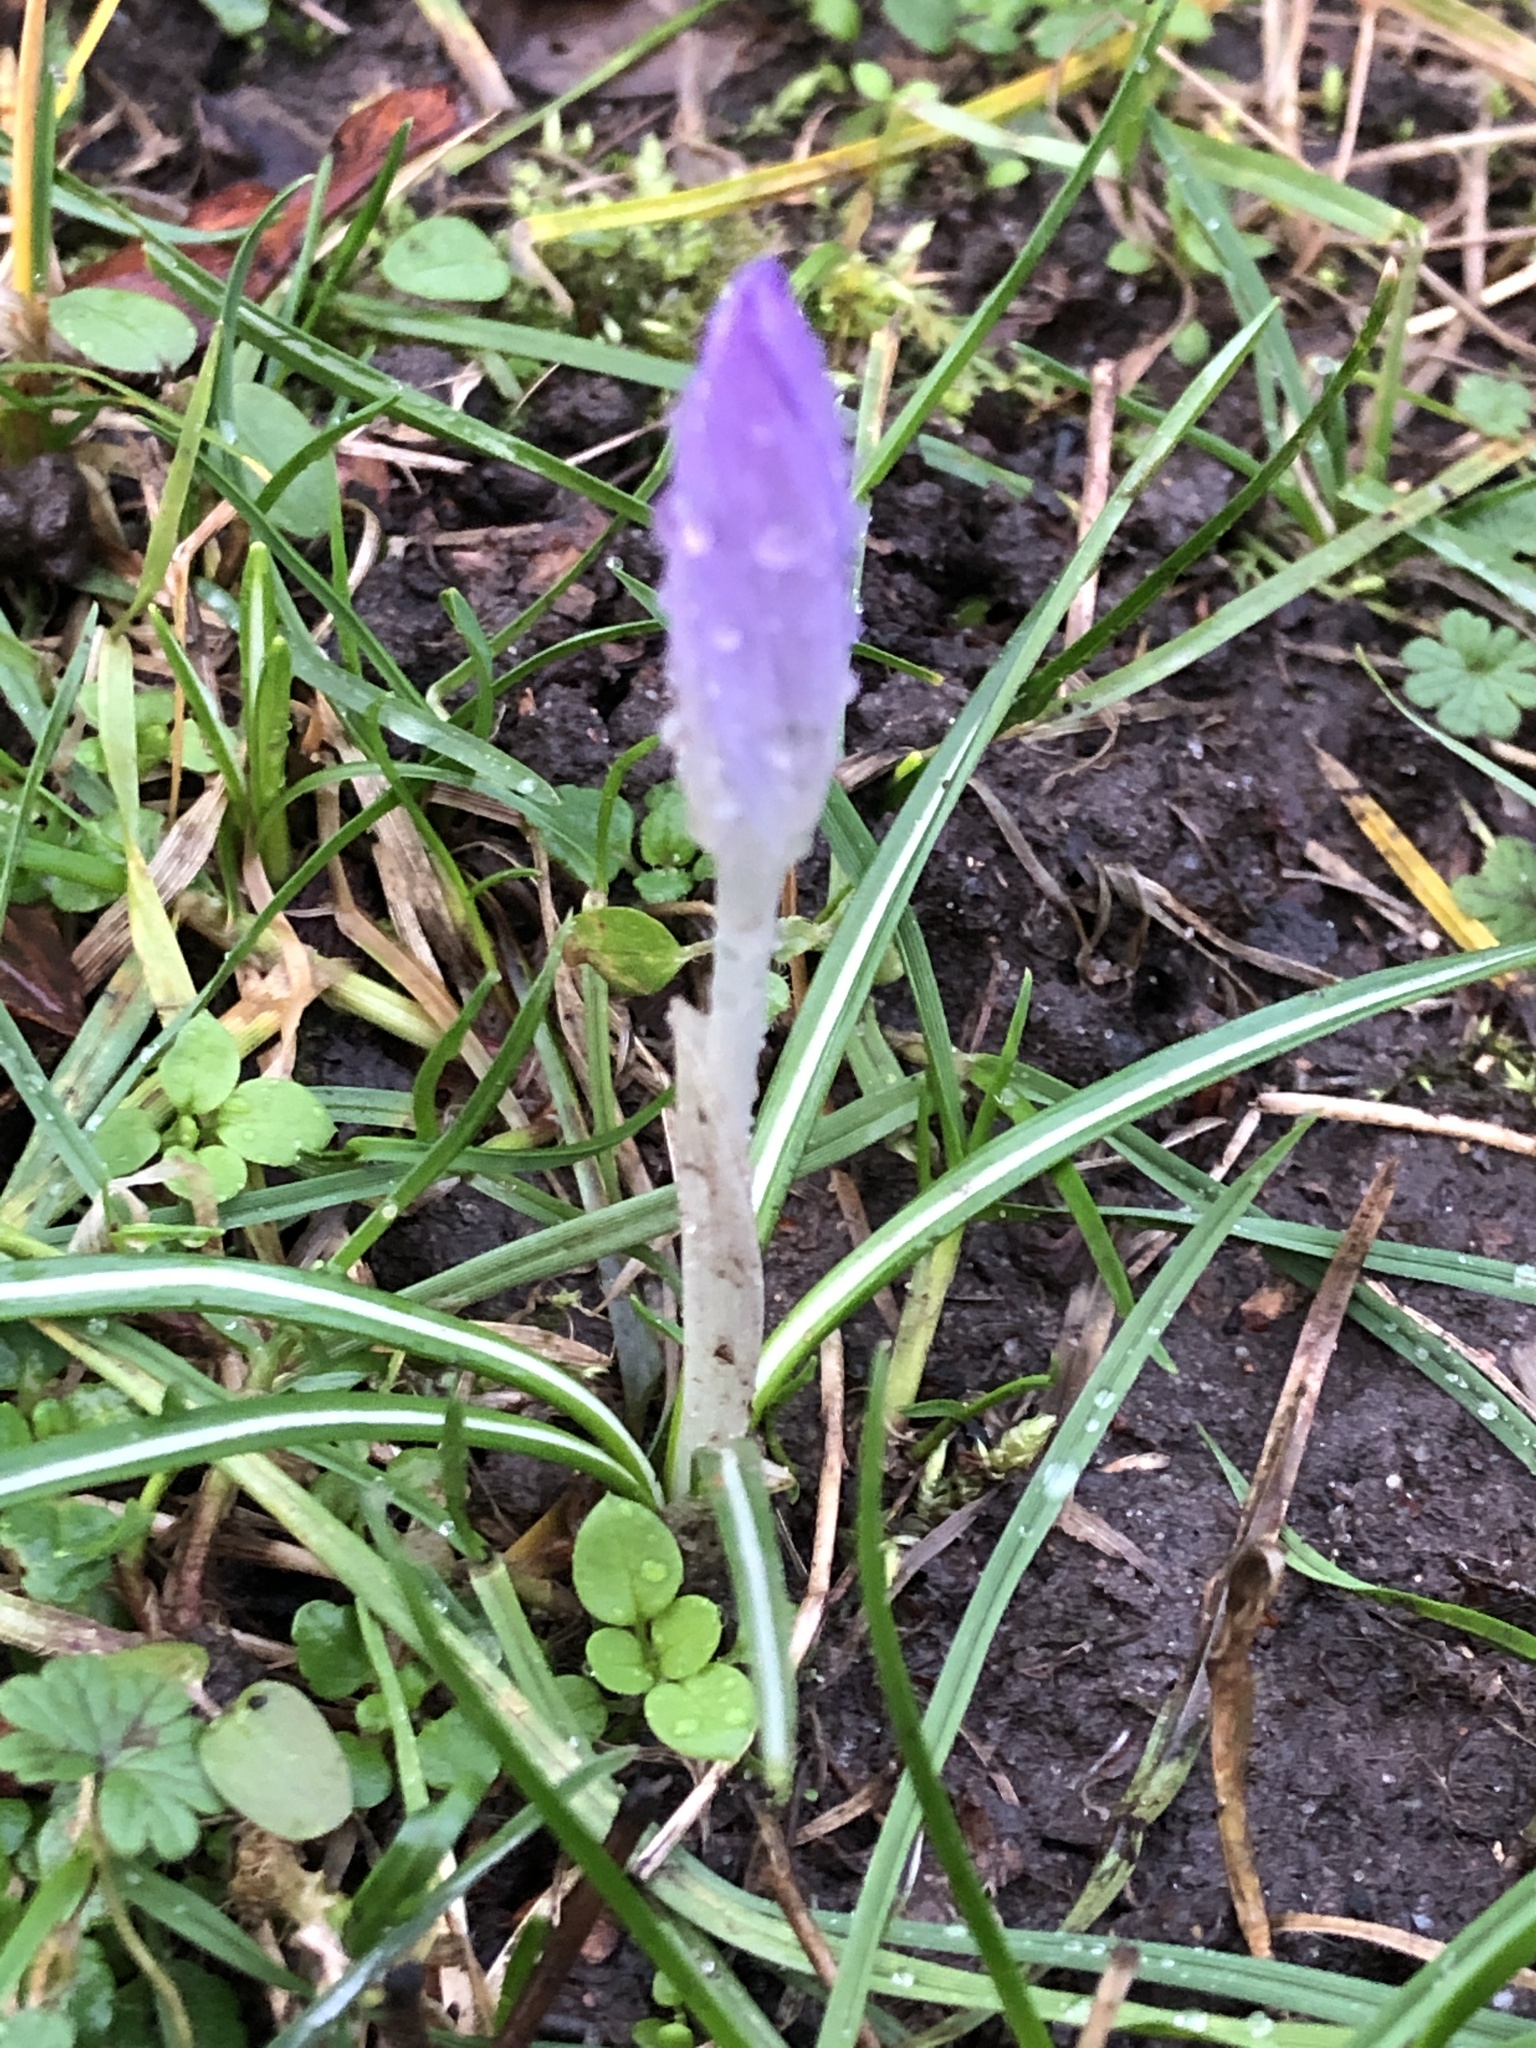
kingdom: Plantae
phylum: Tracheophyta
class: Liliopsida
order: Asparagales
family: Iridaceae
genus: Crocus
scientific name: Crocus tommasinianus
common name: Early crocus
